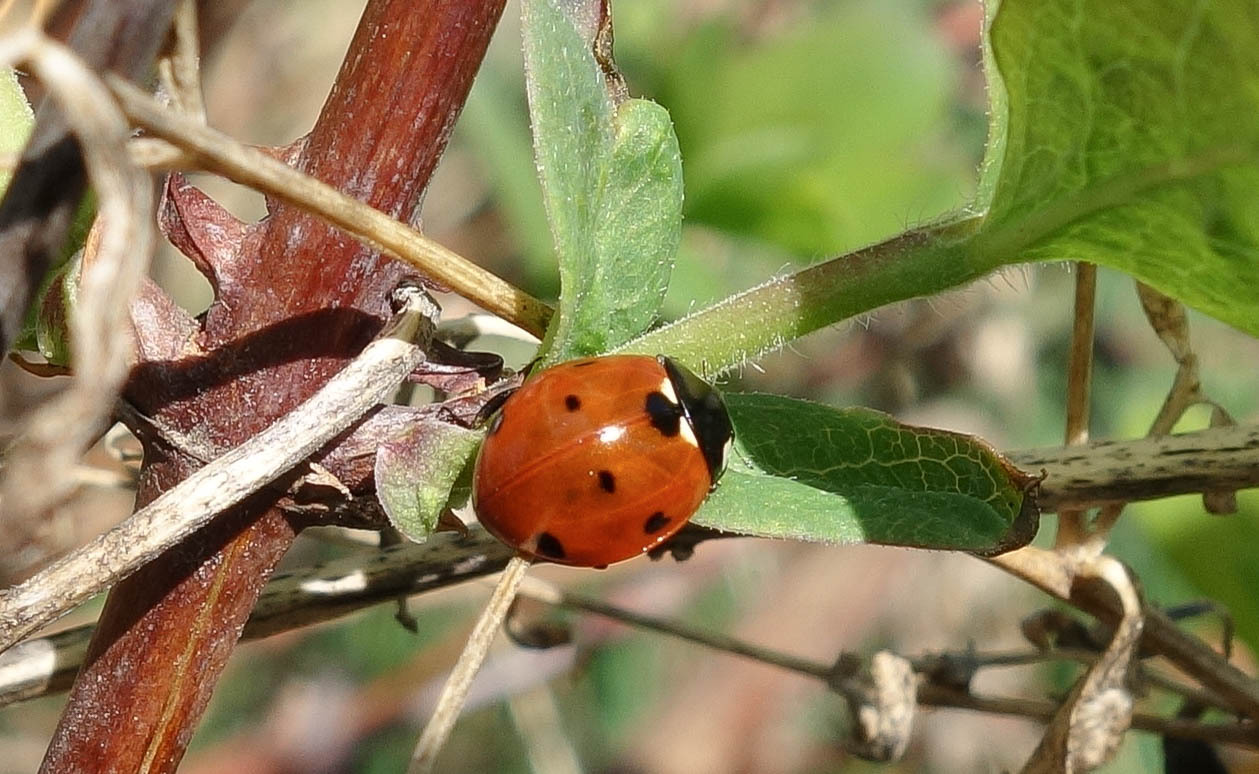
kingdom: Animalia
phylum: Arthropoda
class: Insecta
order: Coleoptera
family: Coccinellidae
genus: Coccinella
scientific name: Coccinella septempunctata
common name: Sevenspotted lady beetle
